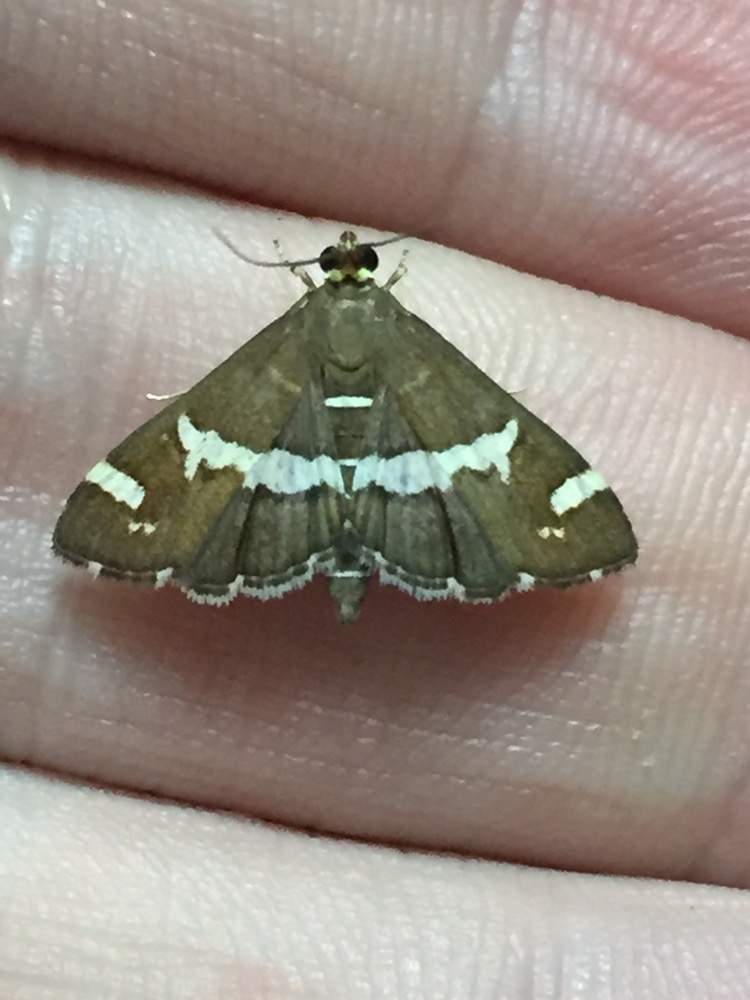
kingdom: Animalia
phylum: Arthropoda
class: Insecta
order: Lepidoptera
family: Crambidae
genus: Spoladea
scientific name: Spoladea recurvalis
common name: Beet webworm moth
